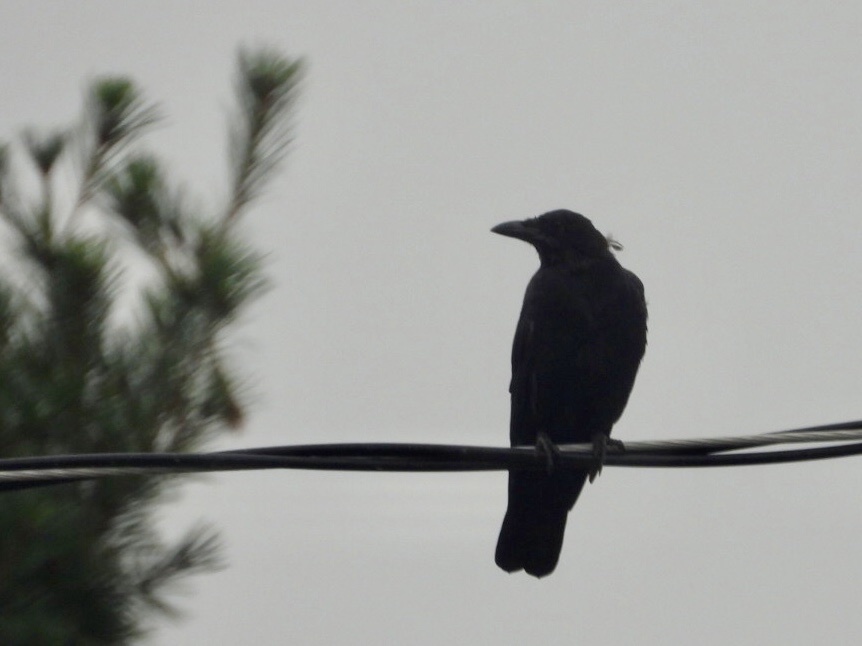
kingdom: Animalia
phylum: Chordata
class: Aves
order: Passeriformes
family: Corvidae
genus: Corvus
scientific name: Corvus brachyrhynchos
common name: American crow
